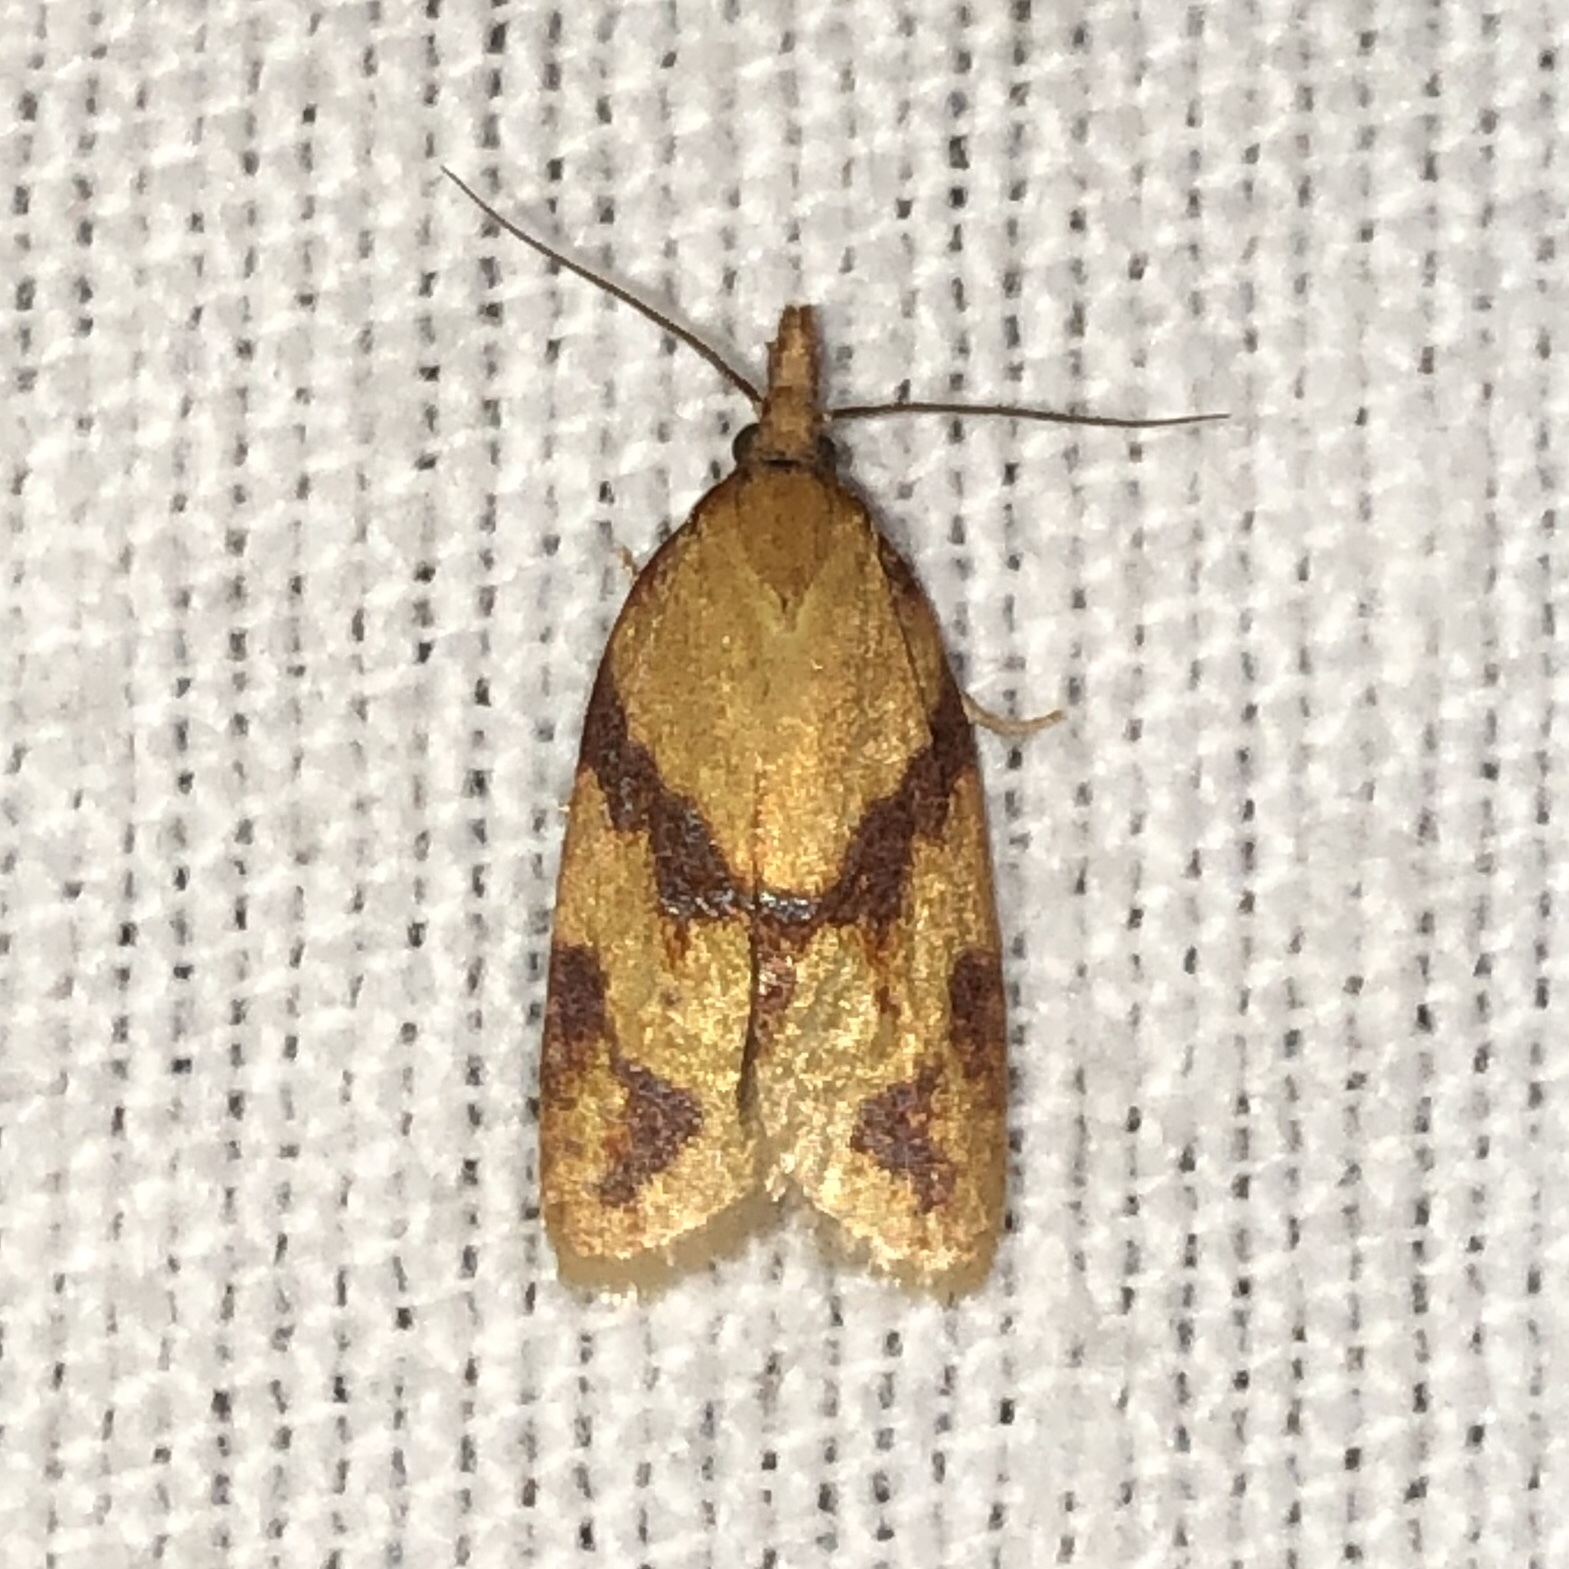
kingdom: Animalia
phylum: Arthropoda
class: Insecta
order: Lepidoptera
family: Tortricidae
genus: Sparganothis
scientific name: Sparganothis unifasciana
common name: One-lined sparganothis moth
